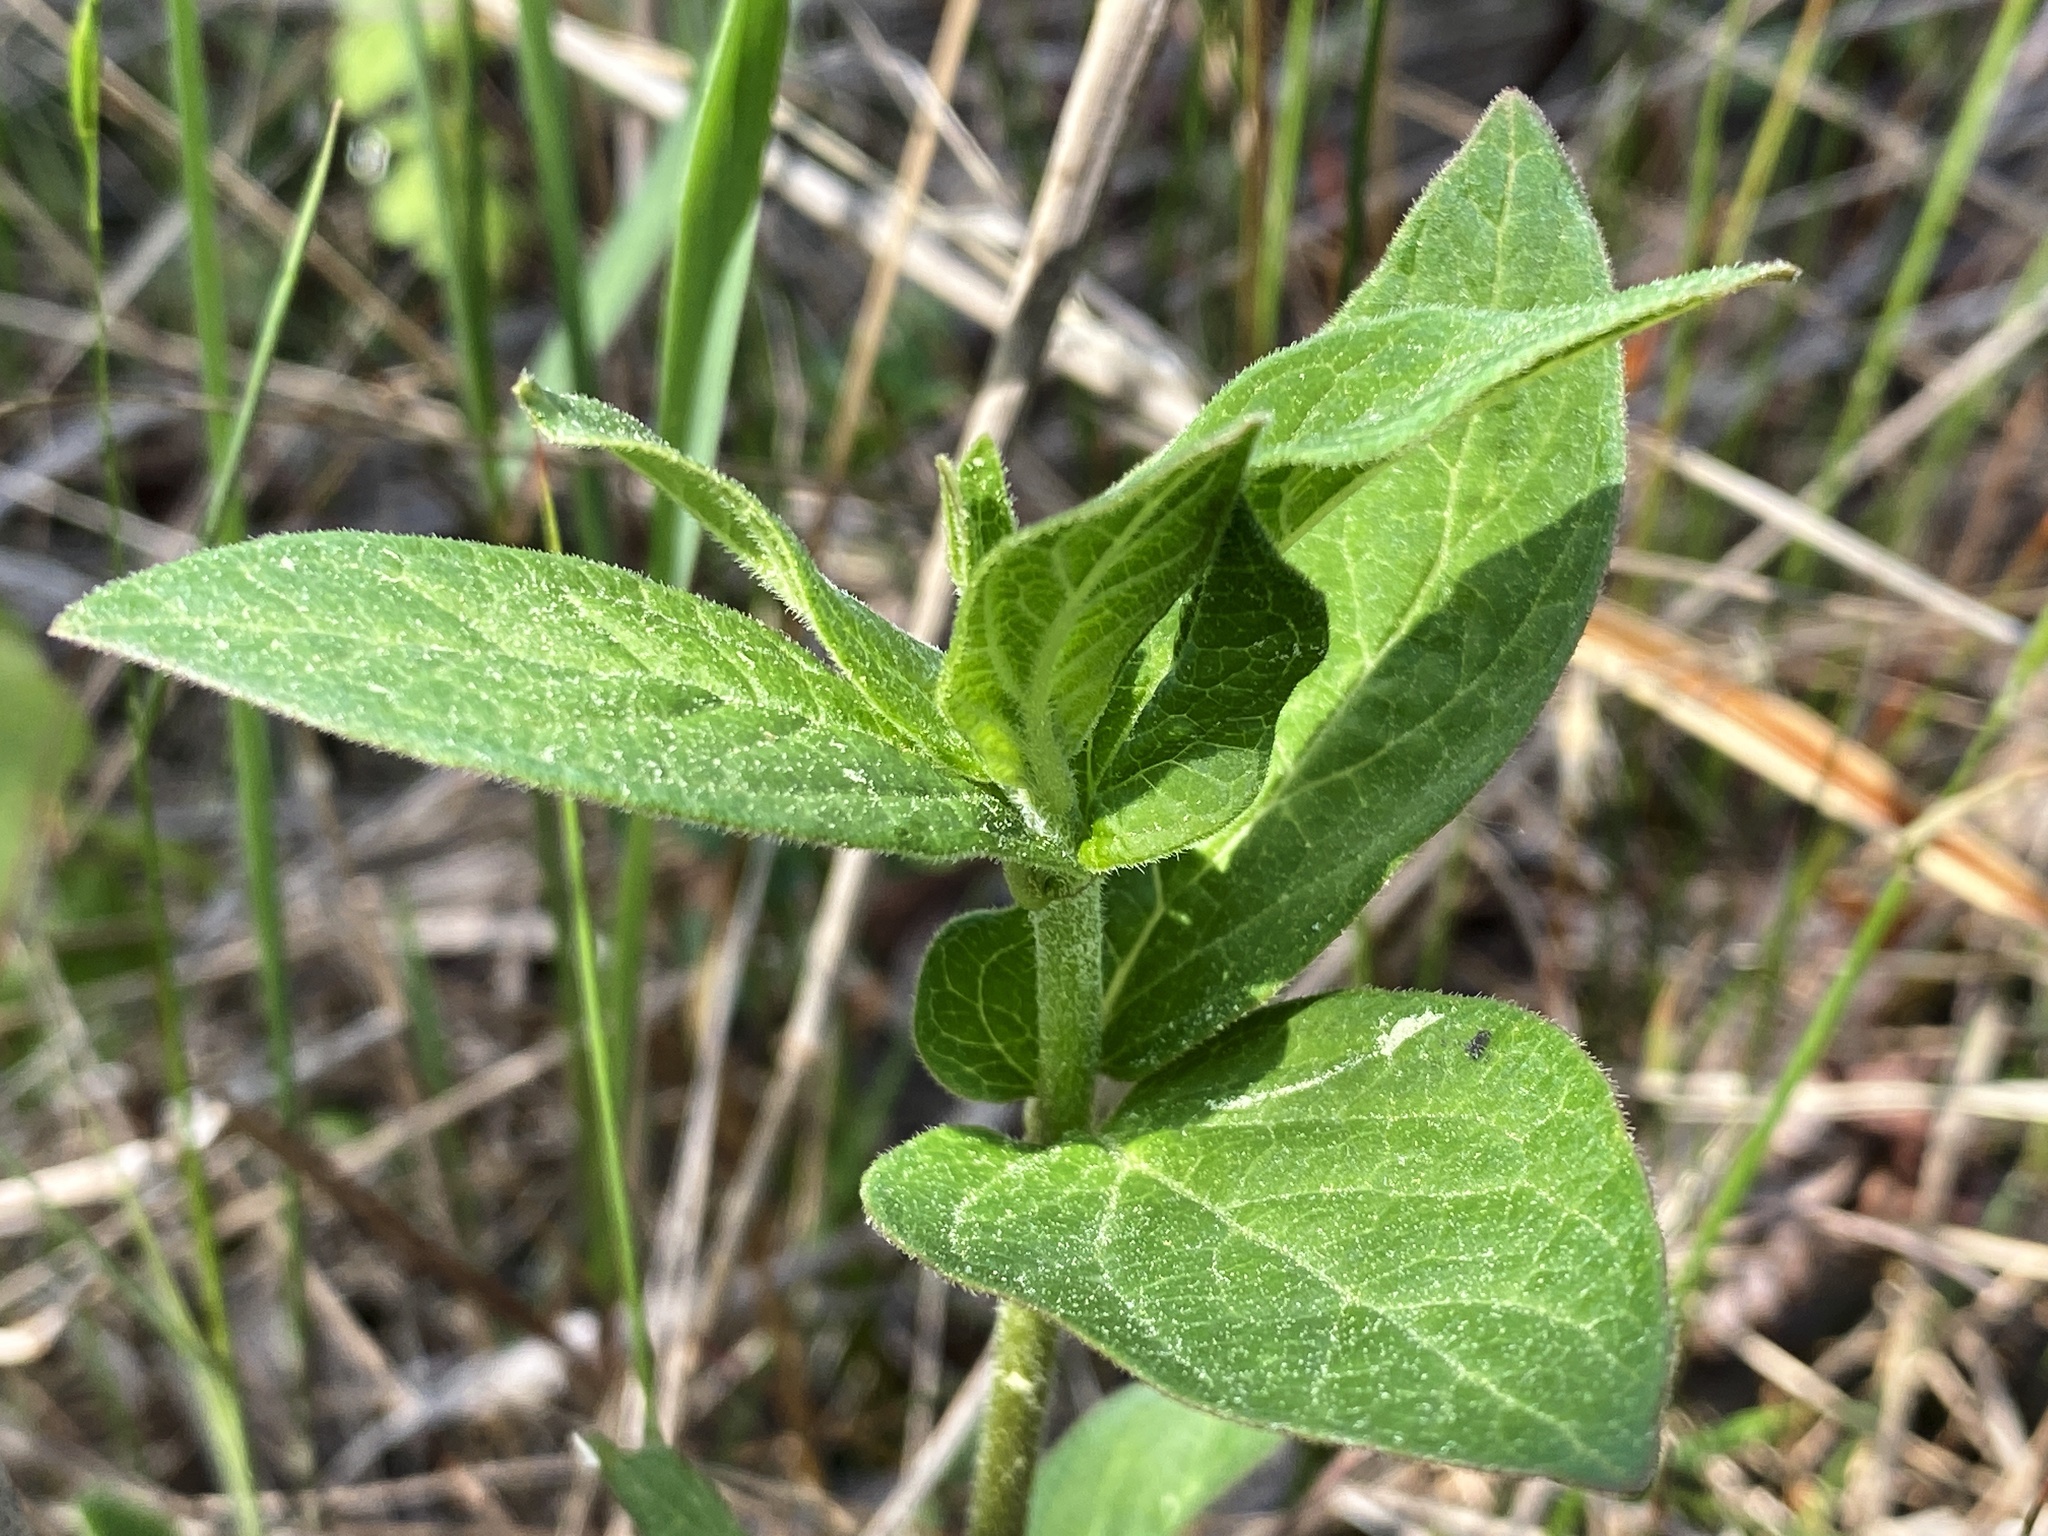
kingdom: Plantae
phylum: Tracheophyta
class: Magnoliopsida
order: Gentianales
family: Apocynaceae
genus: Asclepias
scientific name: Asclepias incarnata
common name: Swamp milkweed
